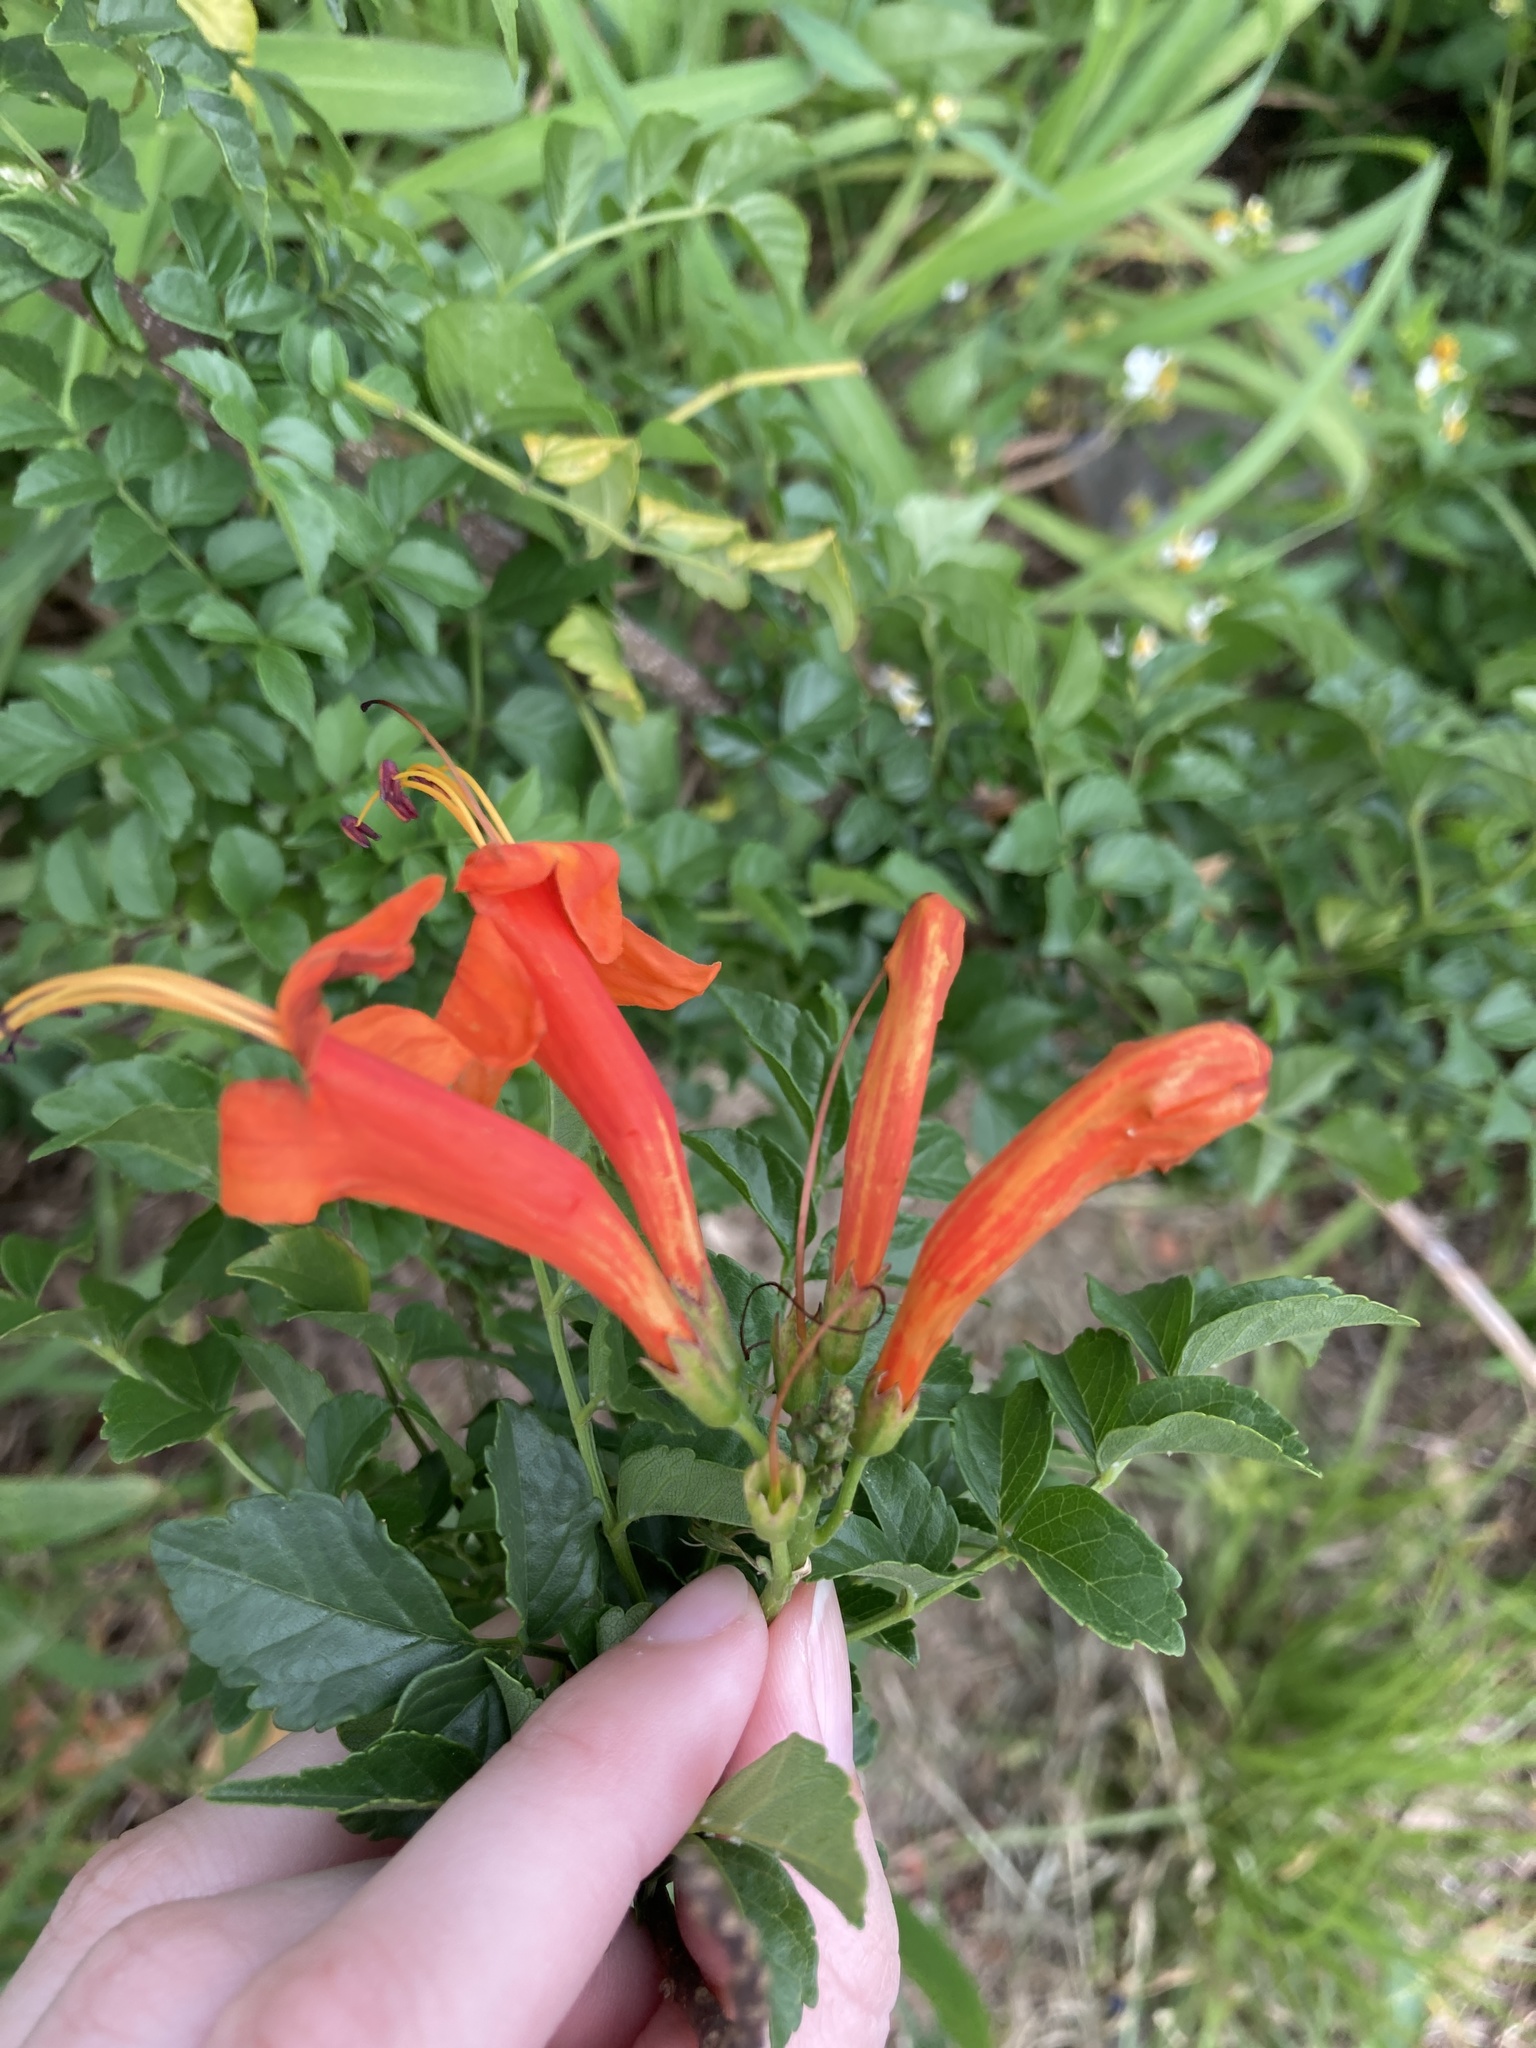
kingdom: Plantae
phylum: Tracheophyta
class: Magnoliopsida
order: Lamiales
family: Bignoniaceae
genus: Tecomaria
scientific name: Tecomaria capensis
